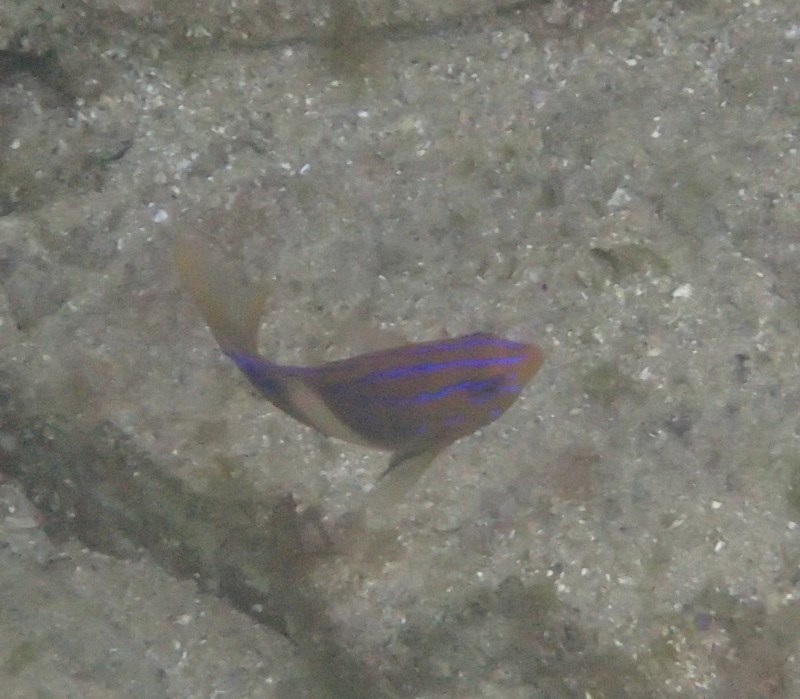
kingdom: Animalia
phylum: Chordata
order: Perciformes
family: Pomacentridae
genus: Parma
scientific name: Parma unifasciata
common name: Girdled parma
